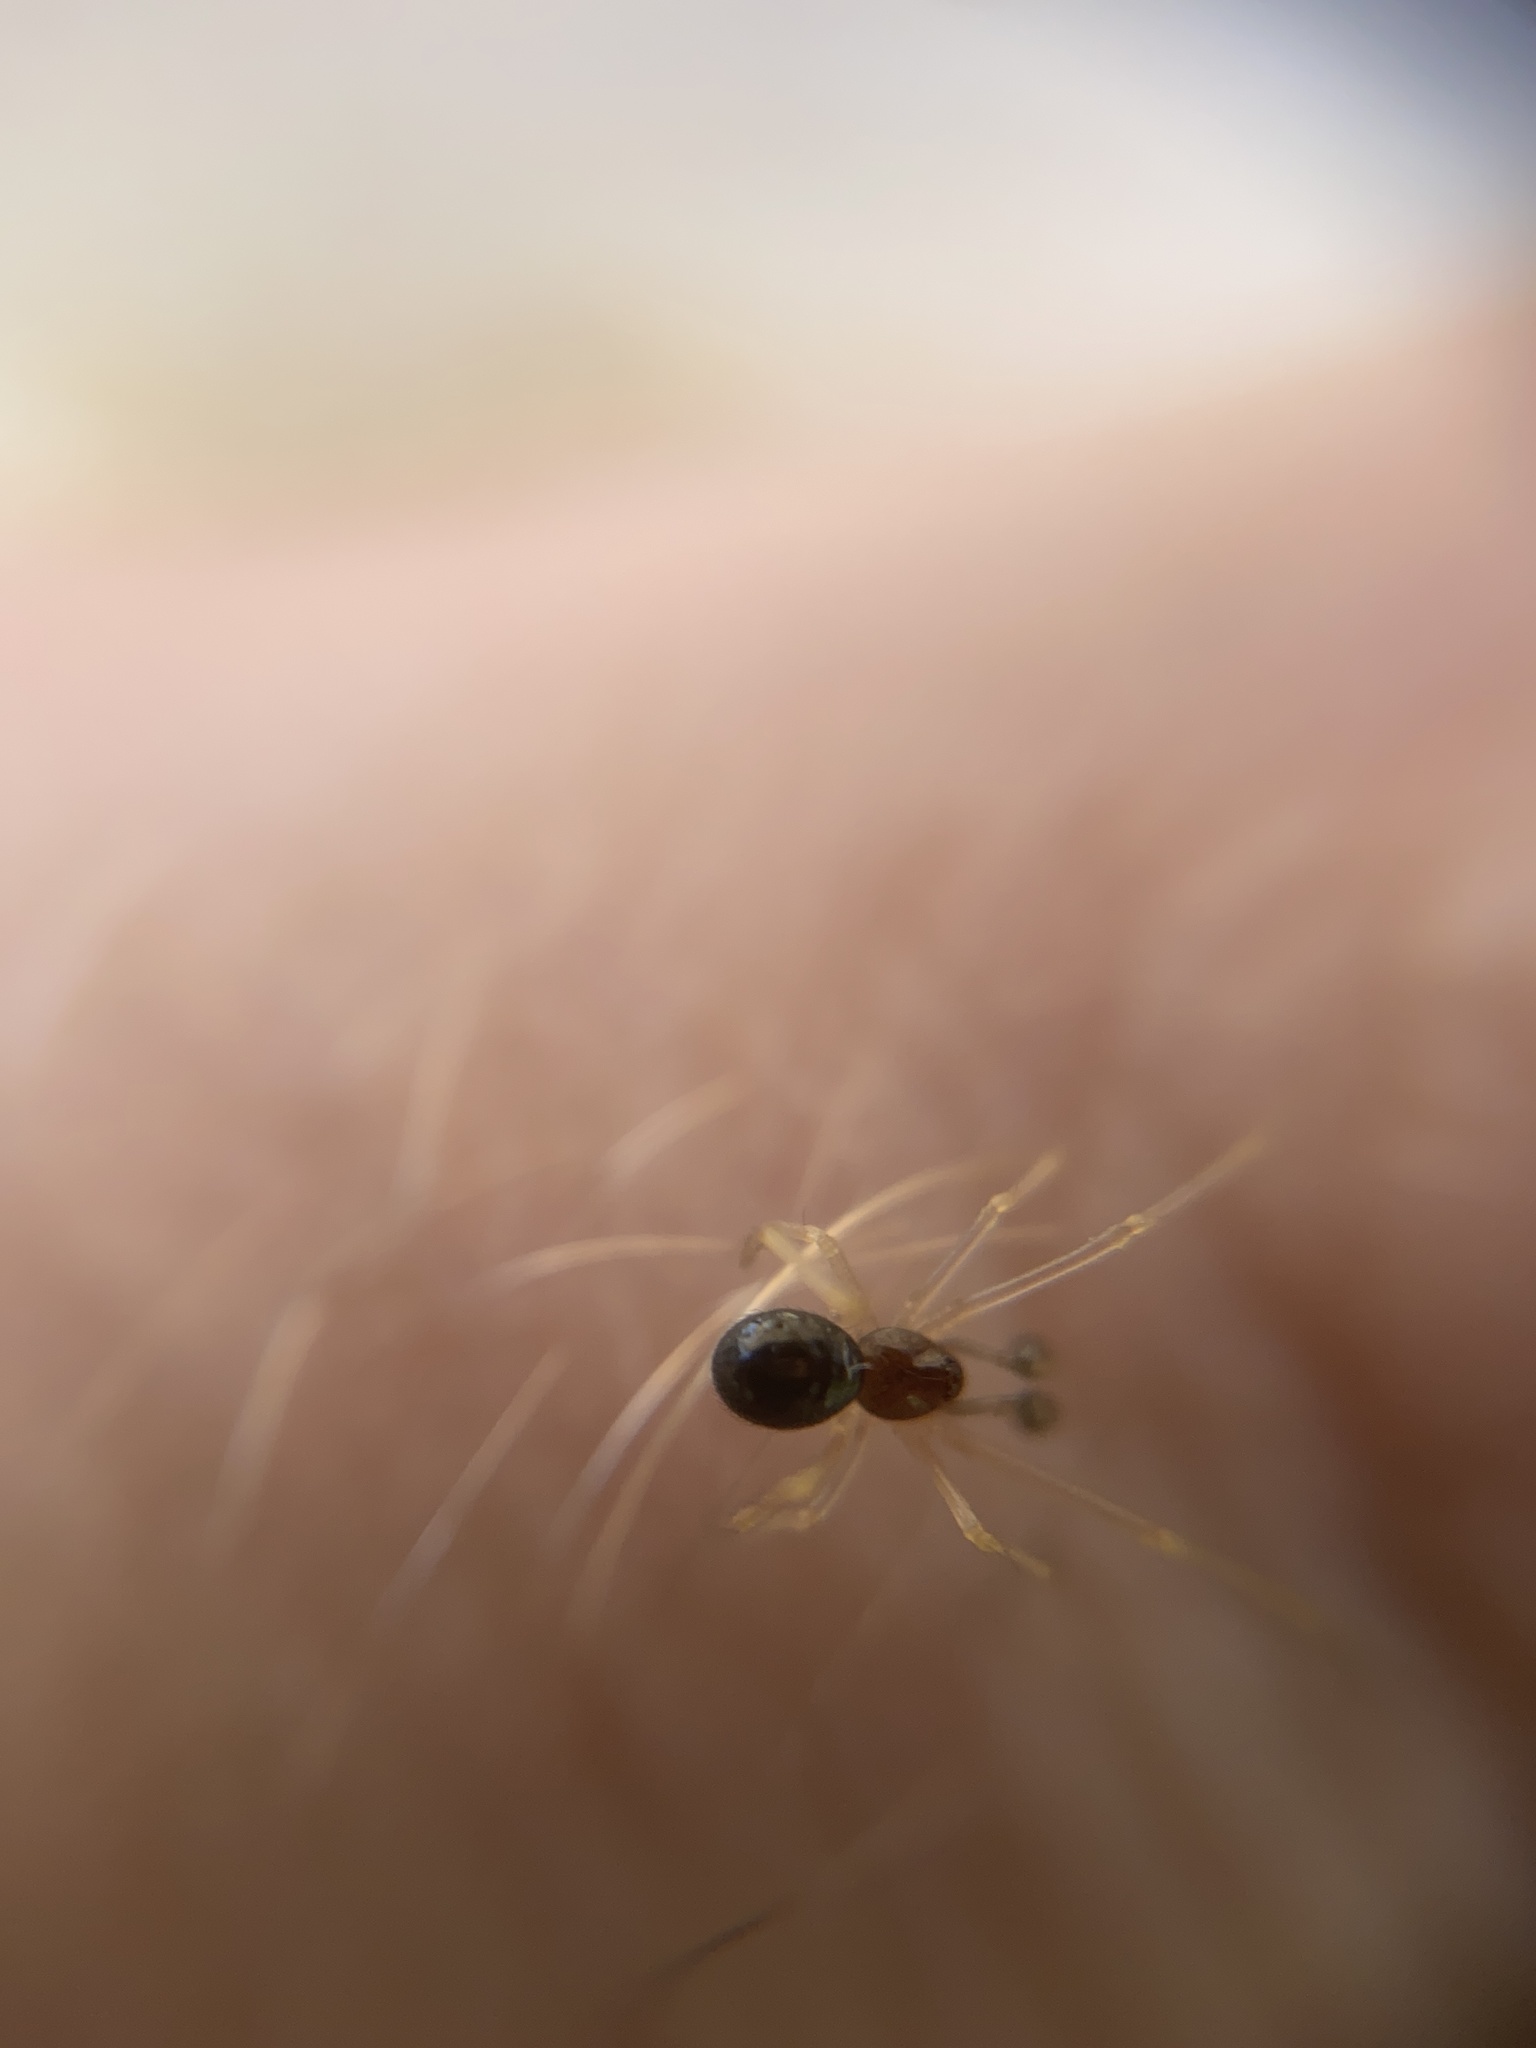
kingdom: Animalia
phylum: Arthropoda
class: Arachnida
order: Araneae
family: Theridiidae
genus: Neottiura
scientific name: Neottiura bimaculata
